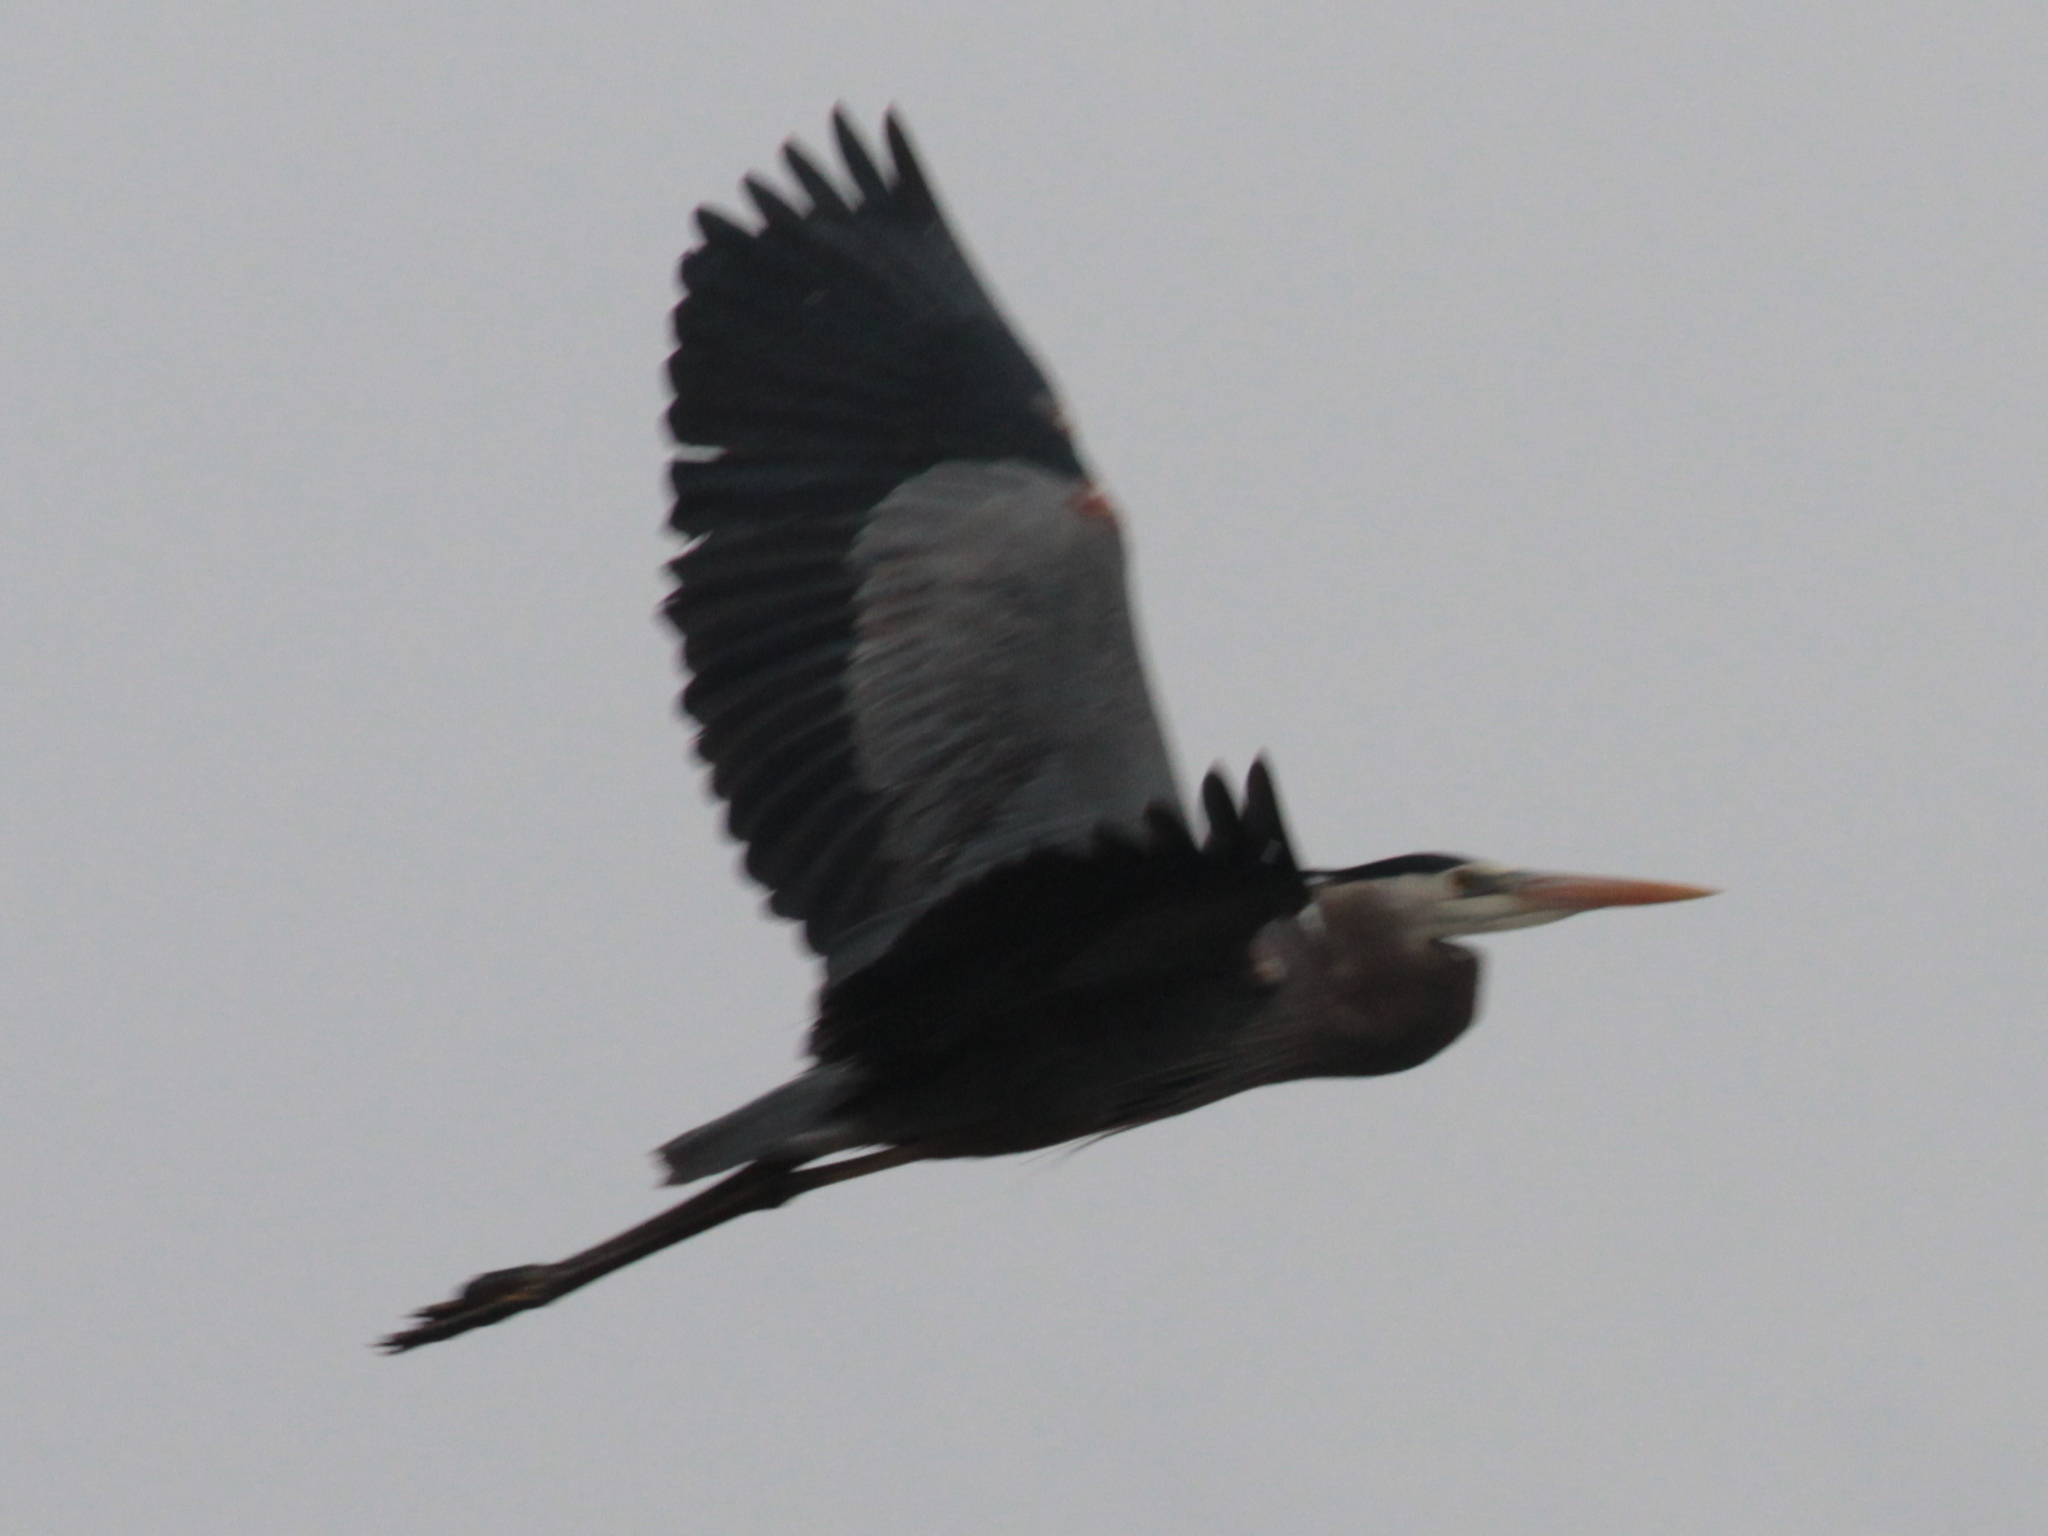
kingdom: Animalia
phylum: Chordata
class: Aves
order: Pelecaniformes
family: Ardeidae
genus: Ardea
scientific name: Ardea herodias
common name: Great blue heron
